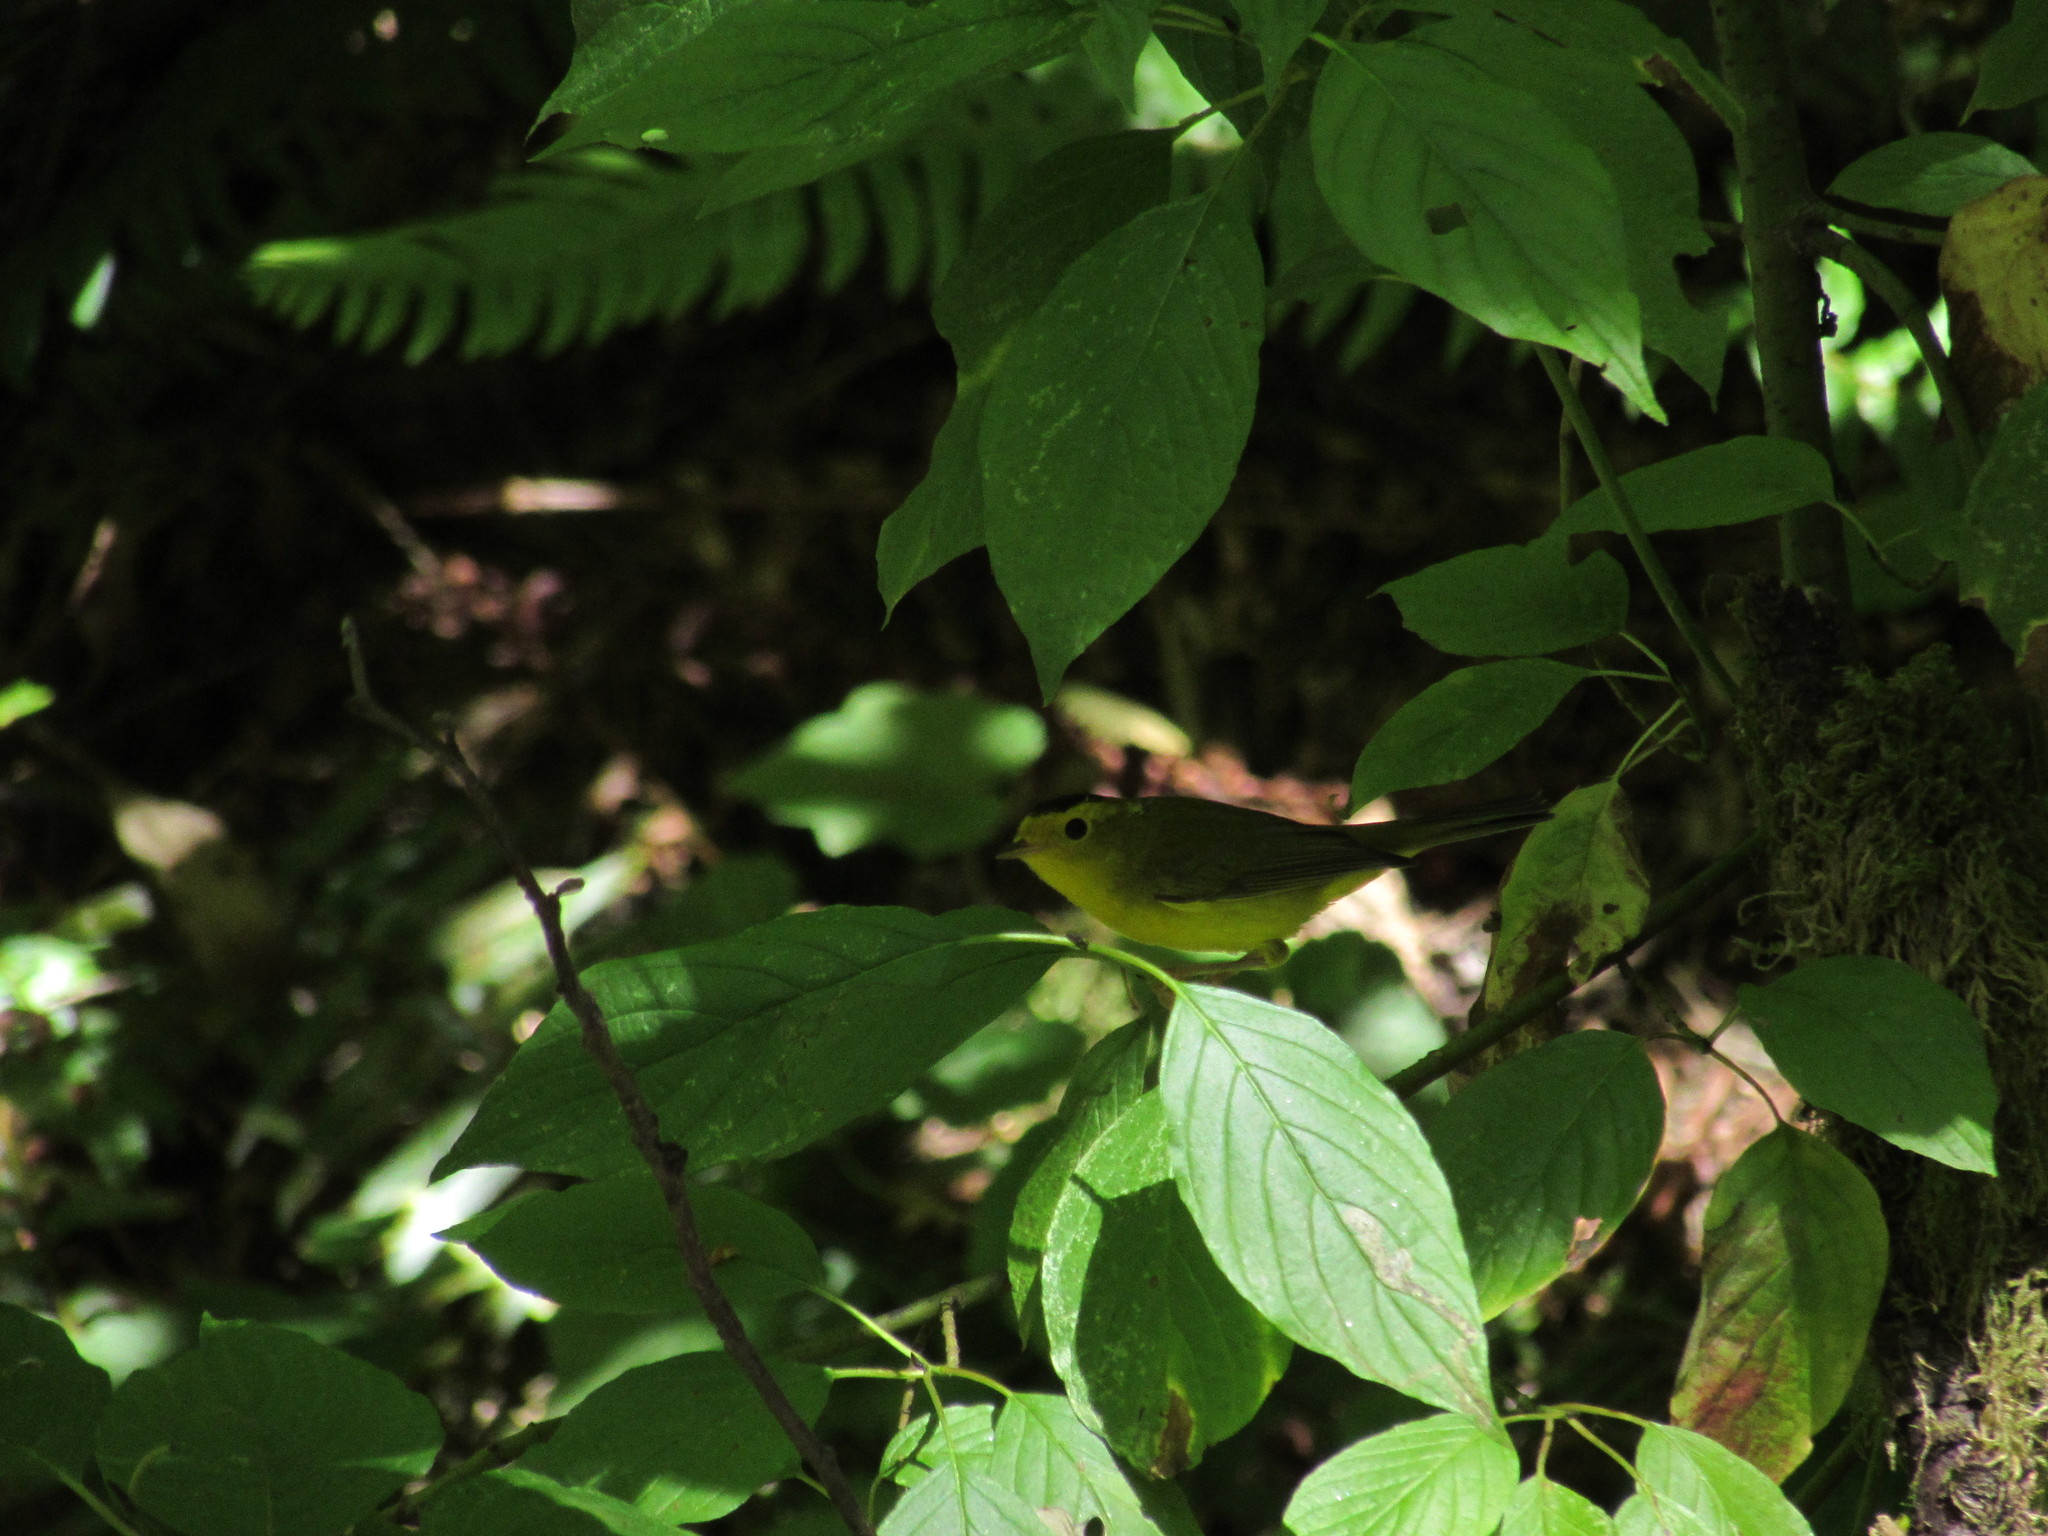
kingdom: Animalia
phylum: Chordata
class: Aves
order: Passeriformes
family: Parulidae
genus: Cardellina
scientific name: Cardellina pusilla
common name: Wilson's warbler
